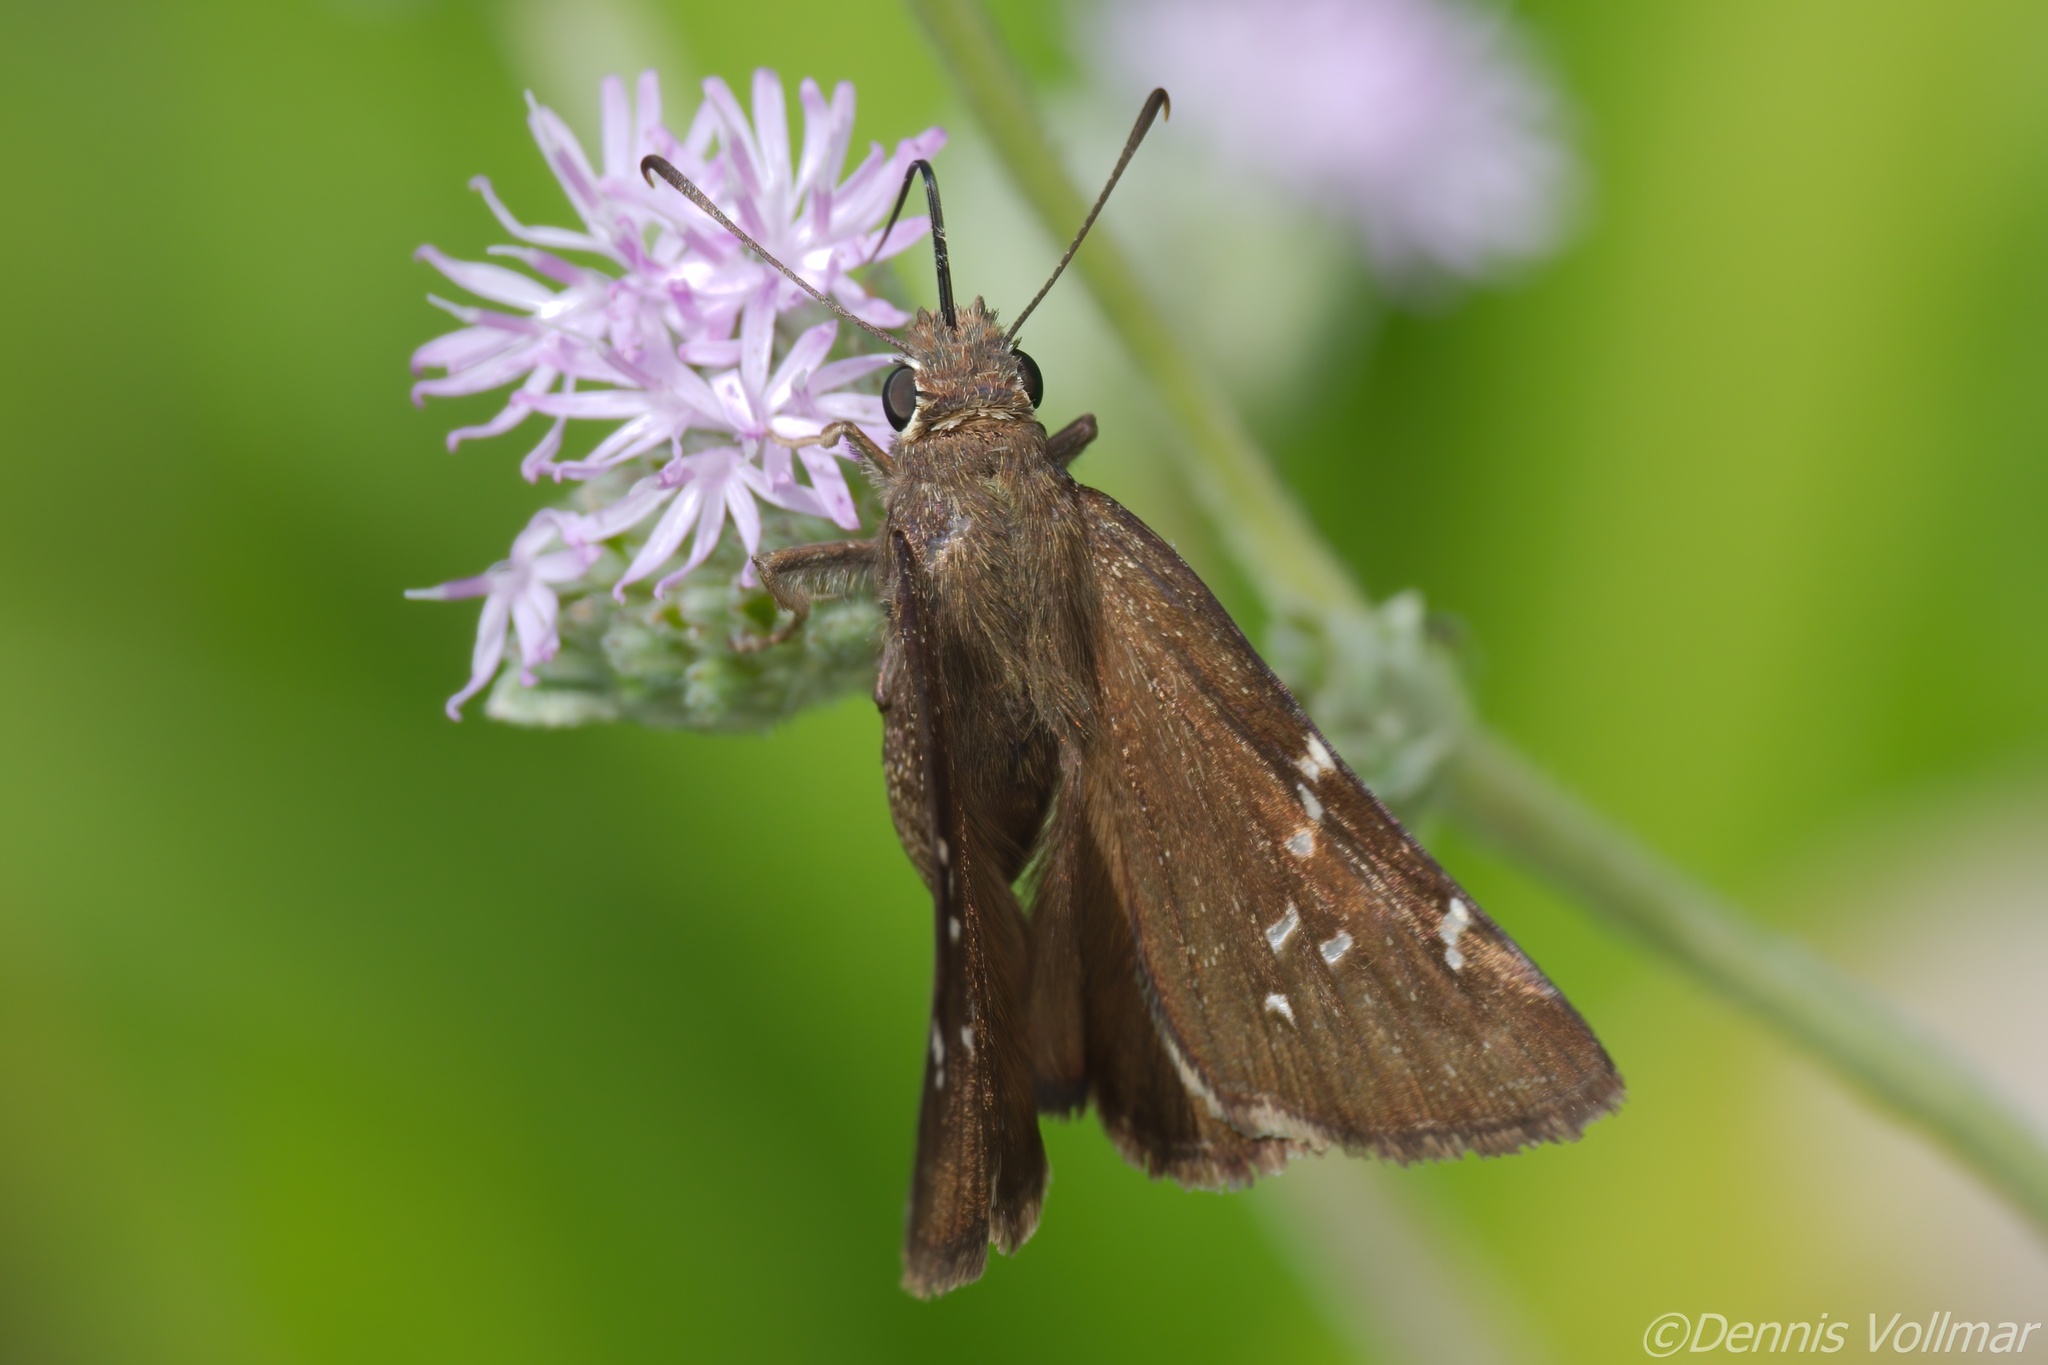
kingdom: Animalia
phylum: Arthropoda
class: Insecta
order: Lepidoptera
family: Hesperiidae
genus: Thorybes
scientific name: Thorybes mexicana
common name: Mexican cloudywing
